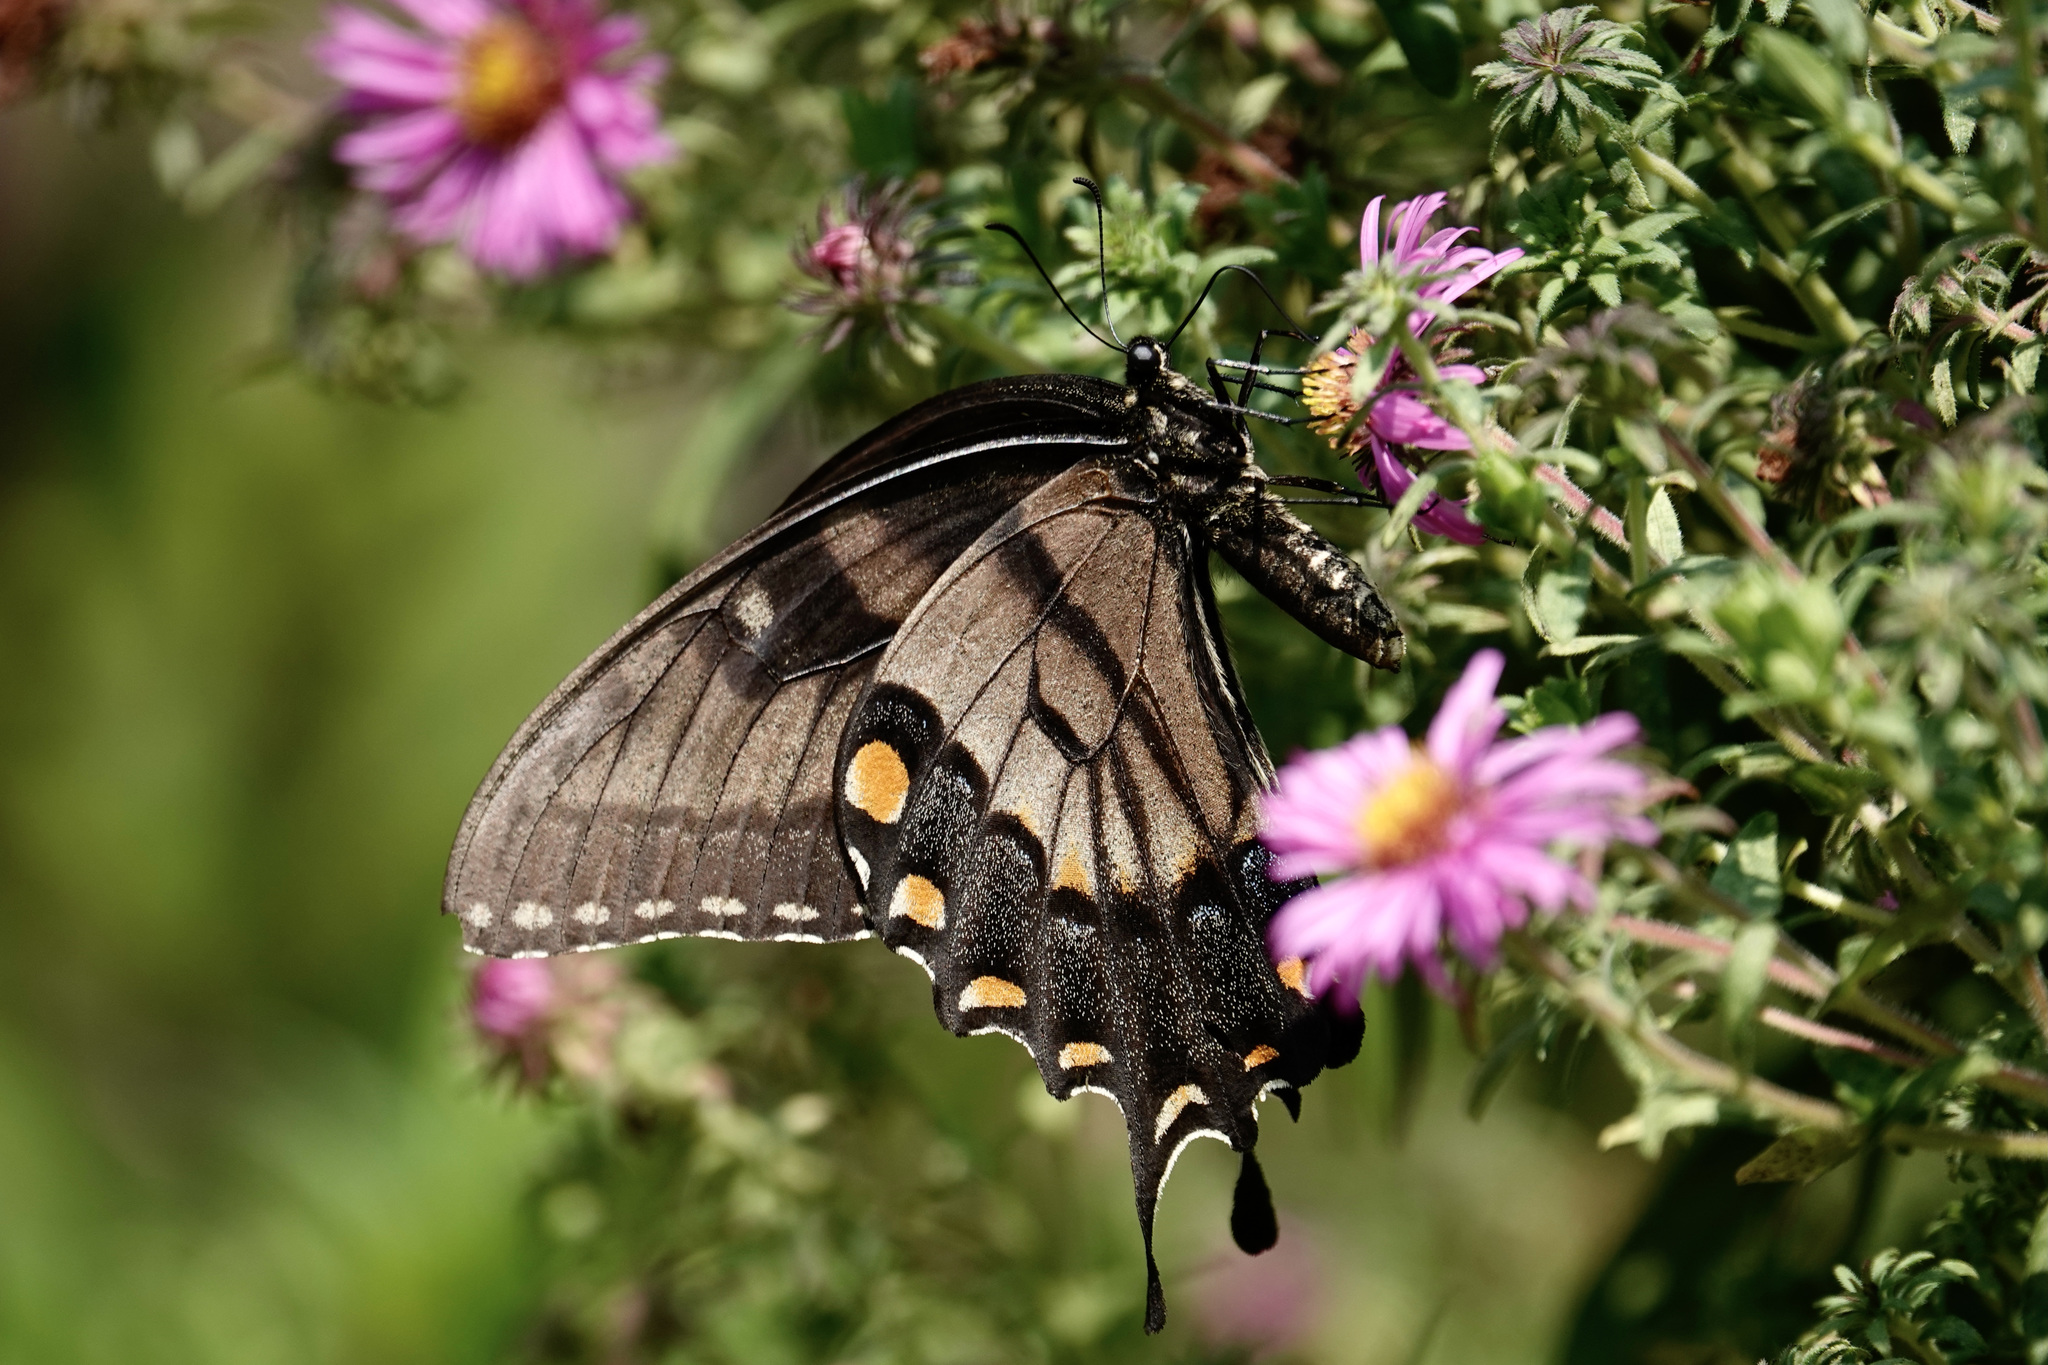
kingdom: Animalia
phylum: Arthropoda
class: Insecta
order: Lepidoptera
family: Papilionidae
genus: Papilio
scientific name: Papilio glaucus
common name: Tiger swallowtail
